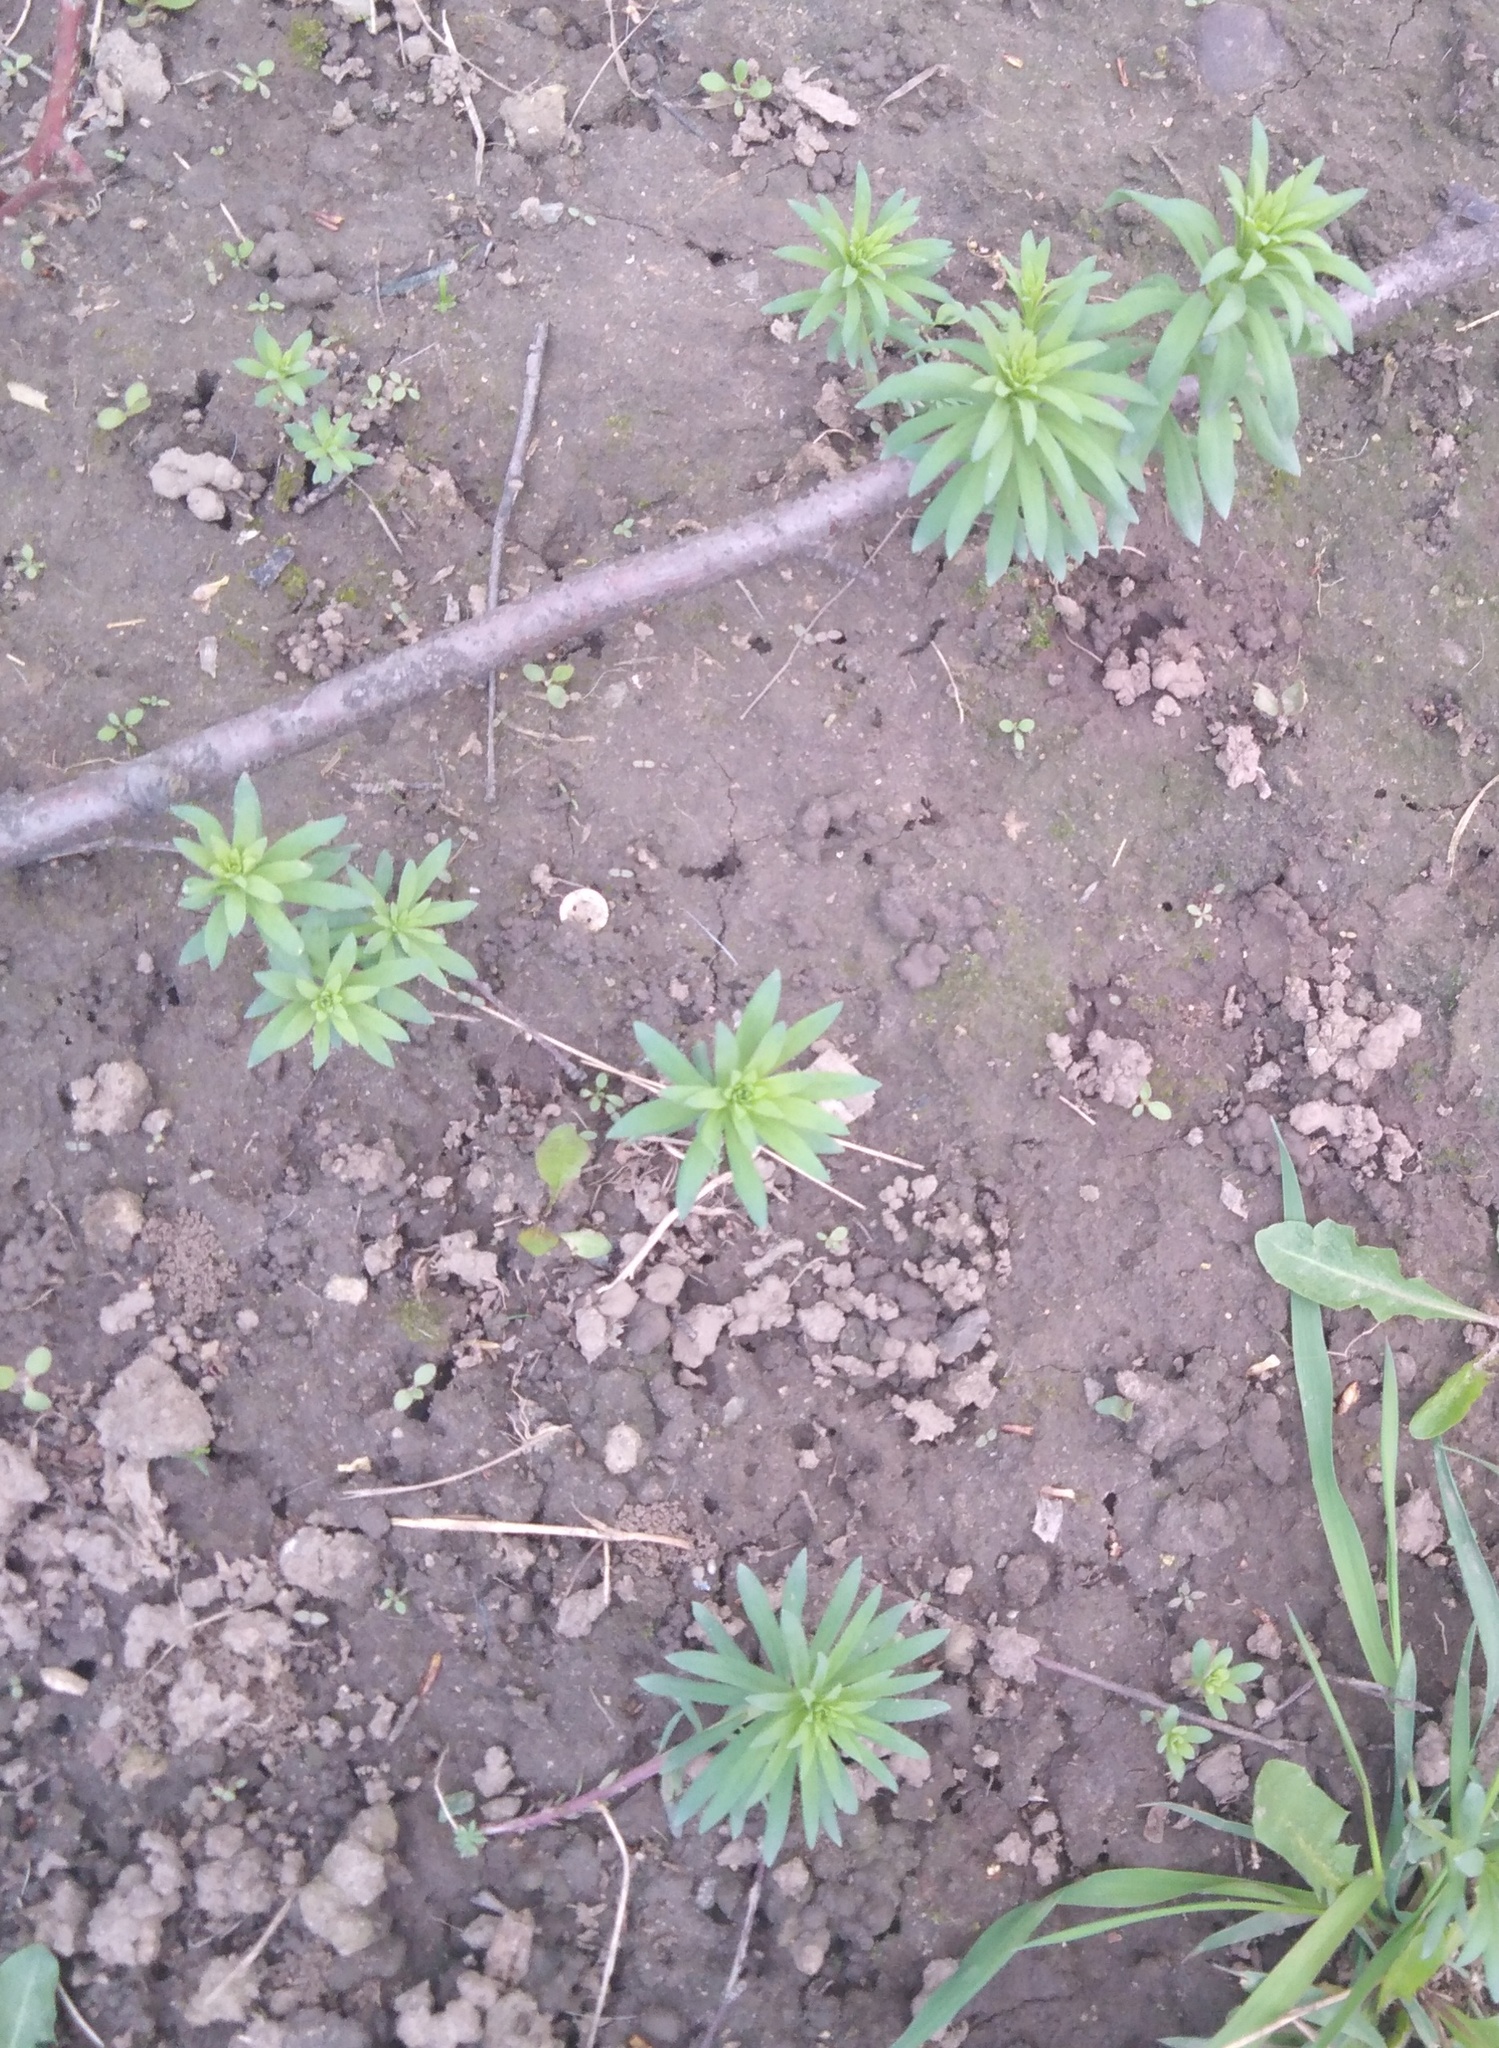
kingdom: Plantae
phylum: Tracheophyta
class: Magnoliopsida
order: Lamiales
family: Plantaginaceae
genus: Linaria
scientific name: Linaria vulgaris
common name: Butter and eggs
